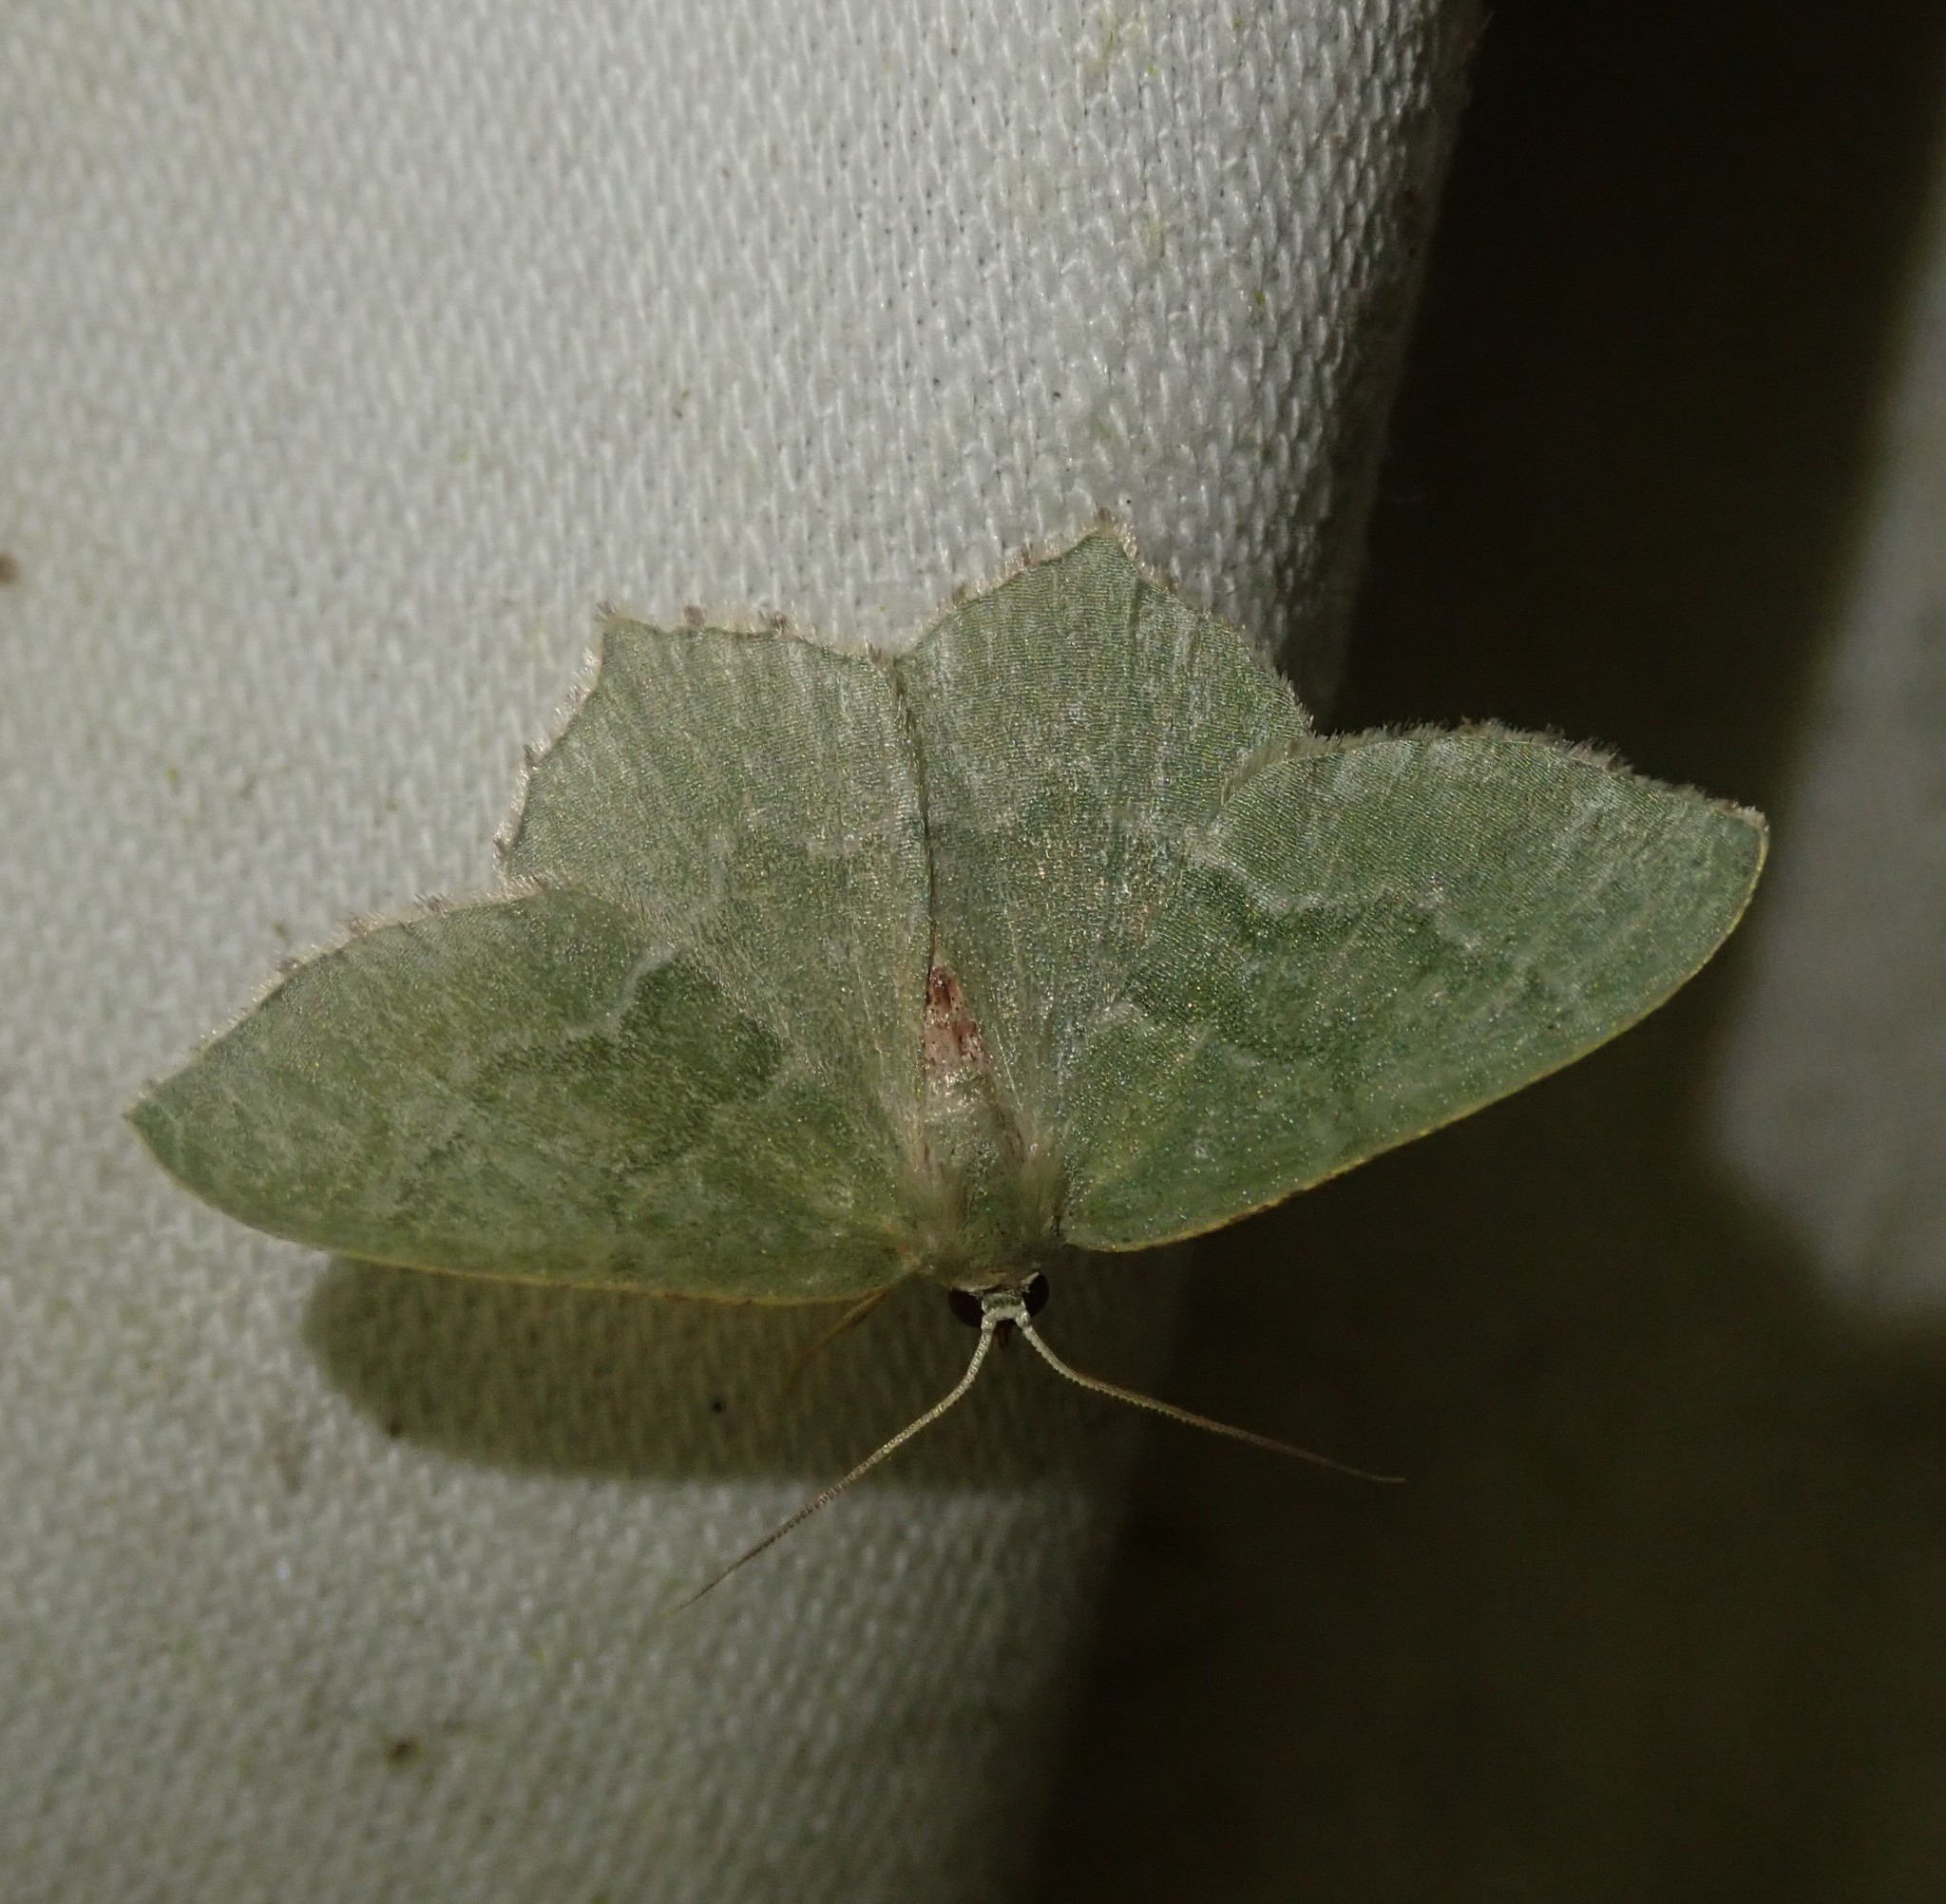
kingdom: Animalia
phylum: Arthropoda
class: Insecta
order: Lepidoptera
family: Geometridae
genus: Hemithea
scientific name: Hemithea aestivaria
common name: Common emerald
